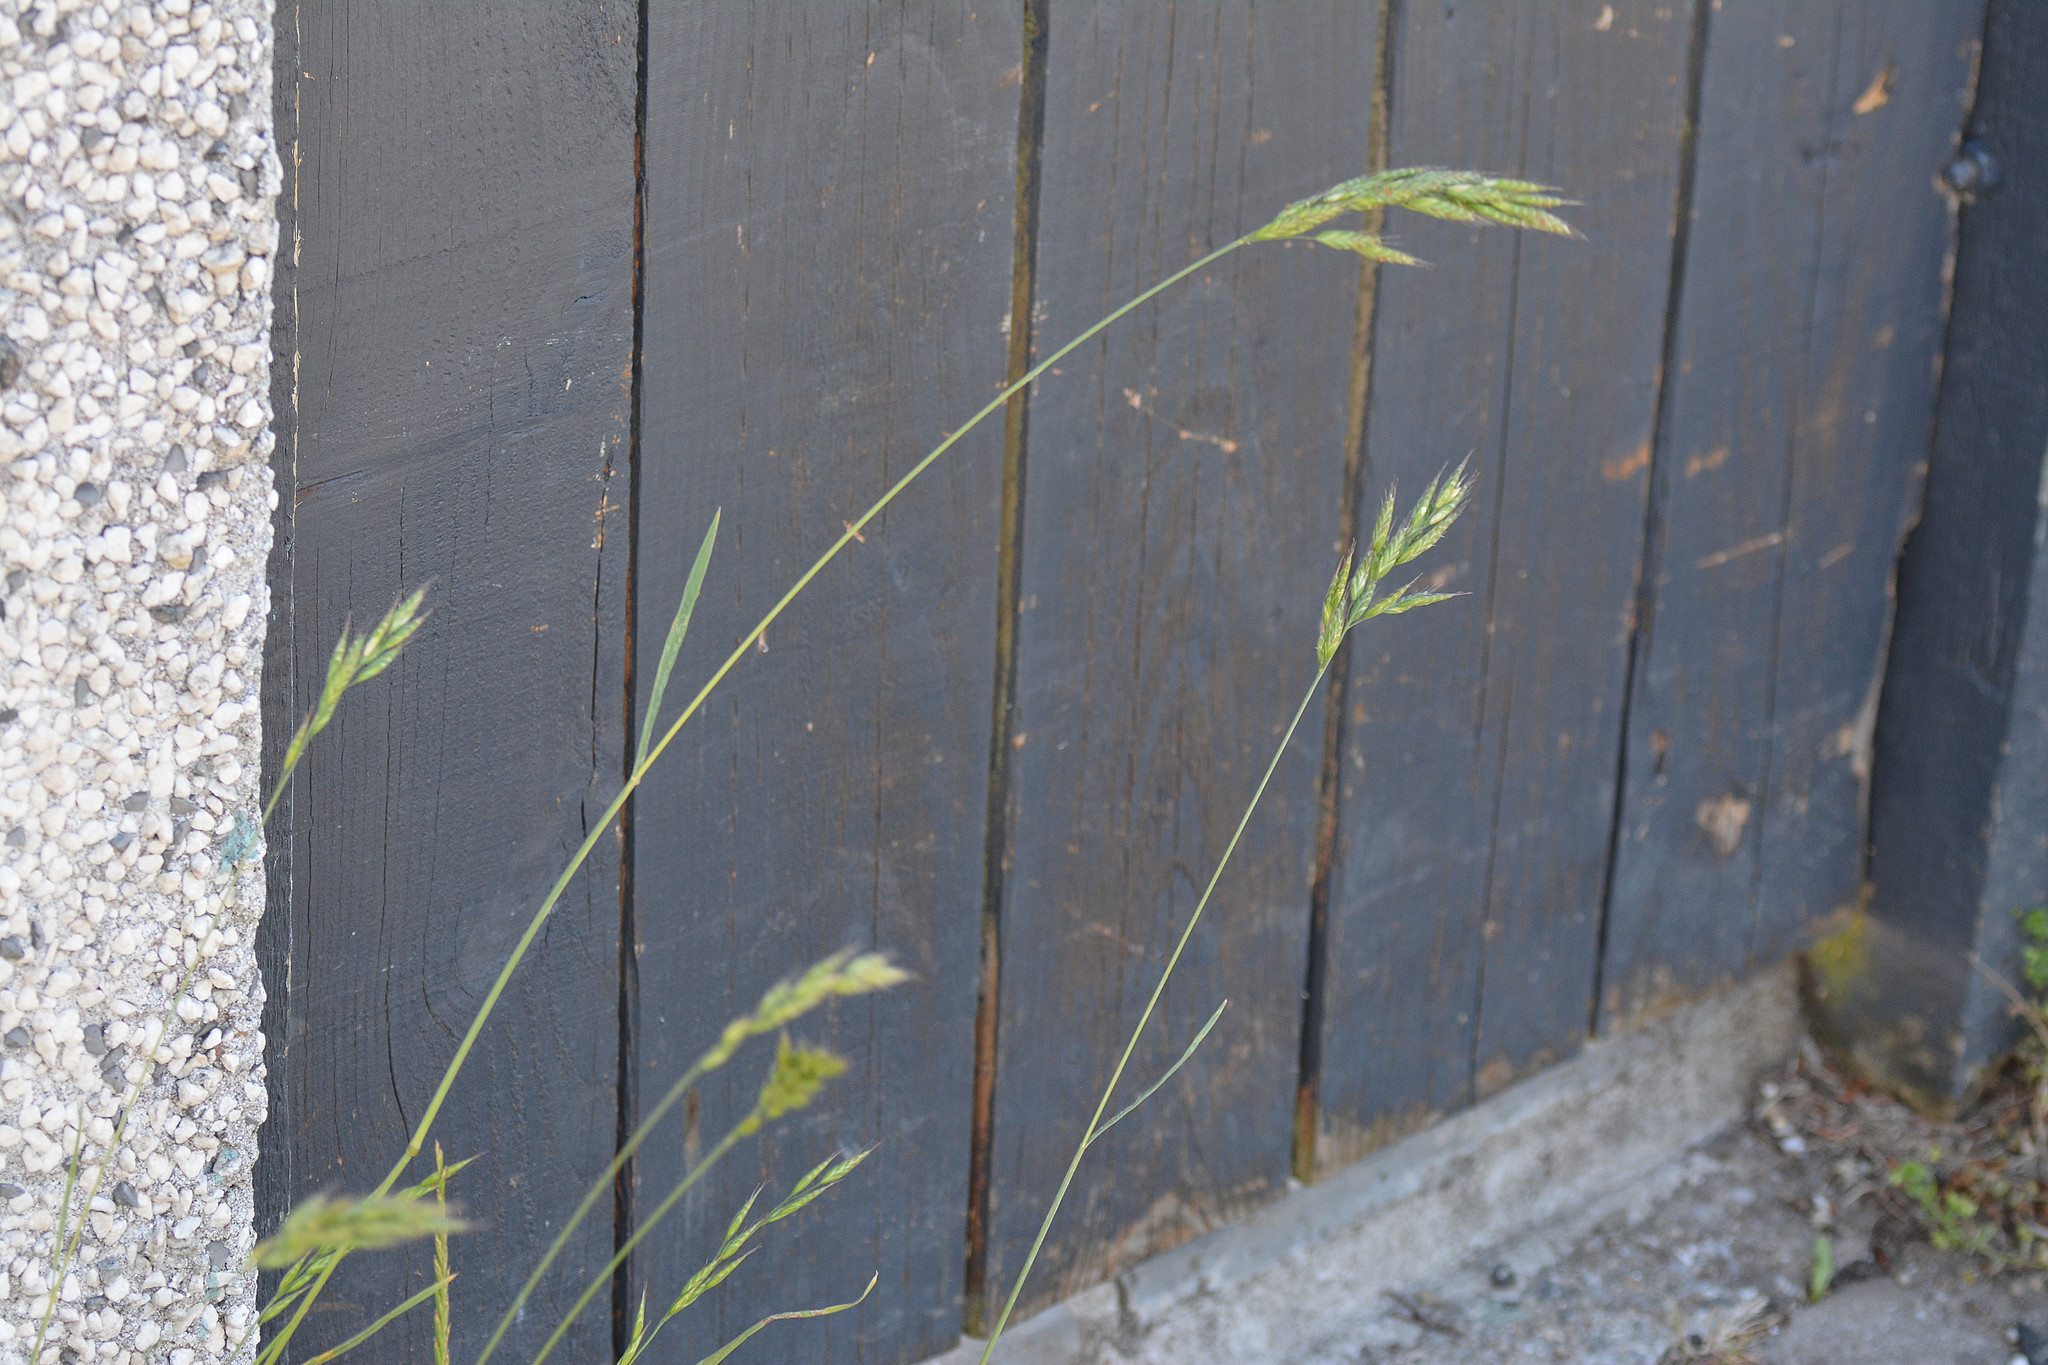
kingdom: Plantae
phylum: Tracheophyta
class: Liliopsida
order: Poales
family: Poaceae
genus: Bromus
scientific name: Bromus hordeaceus
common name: Soft brome
